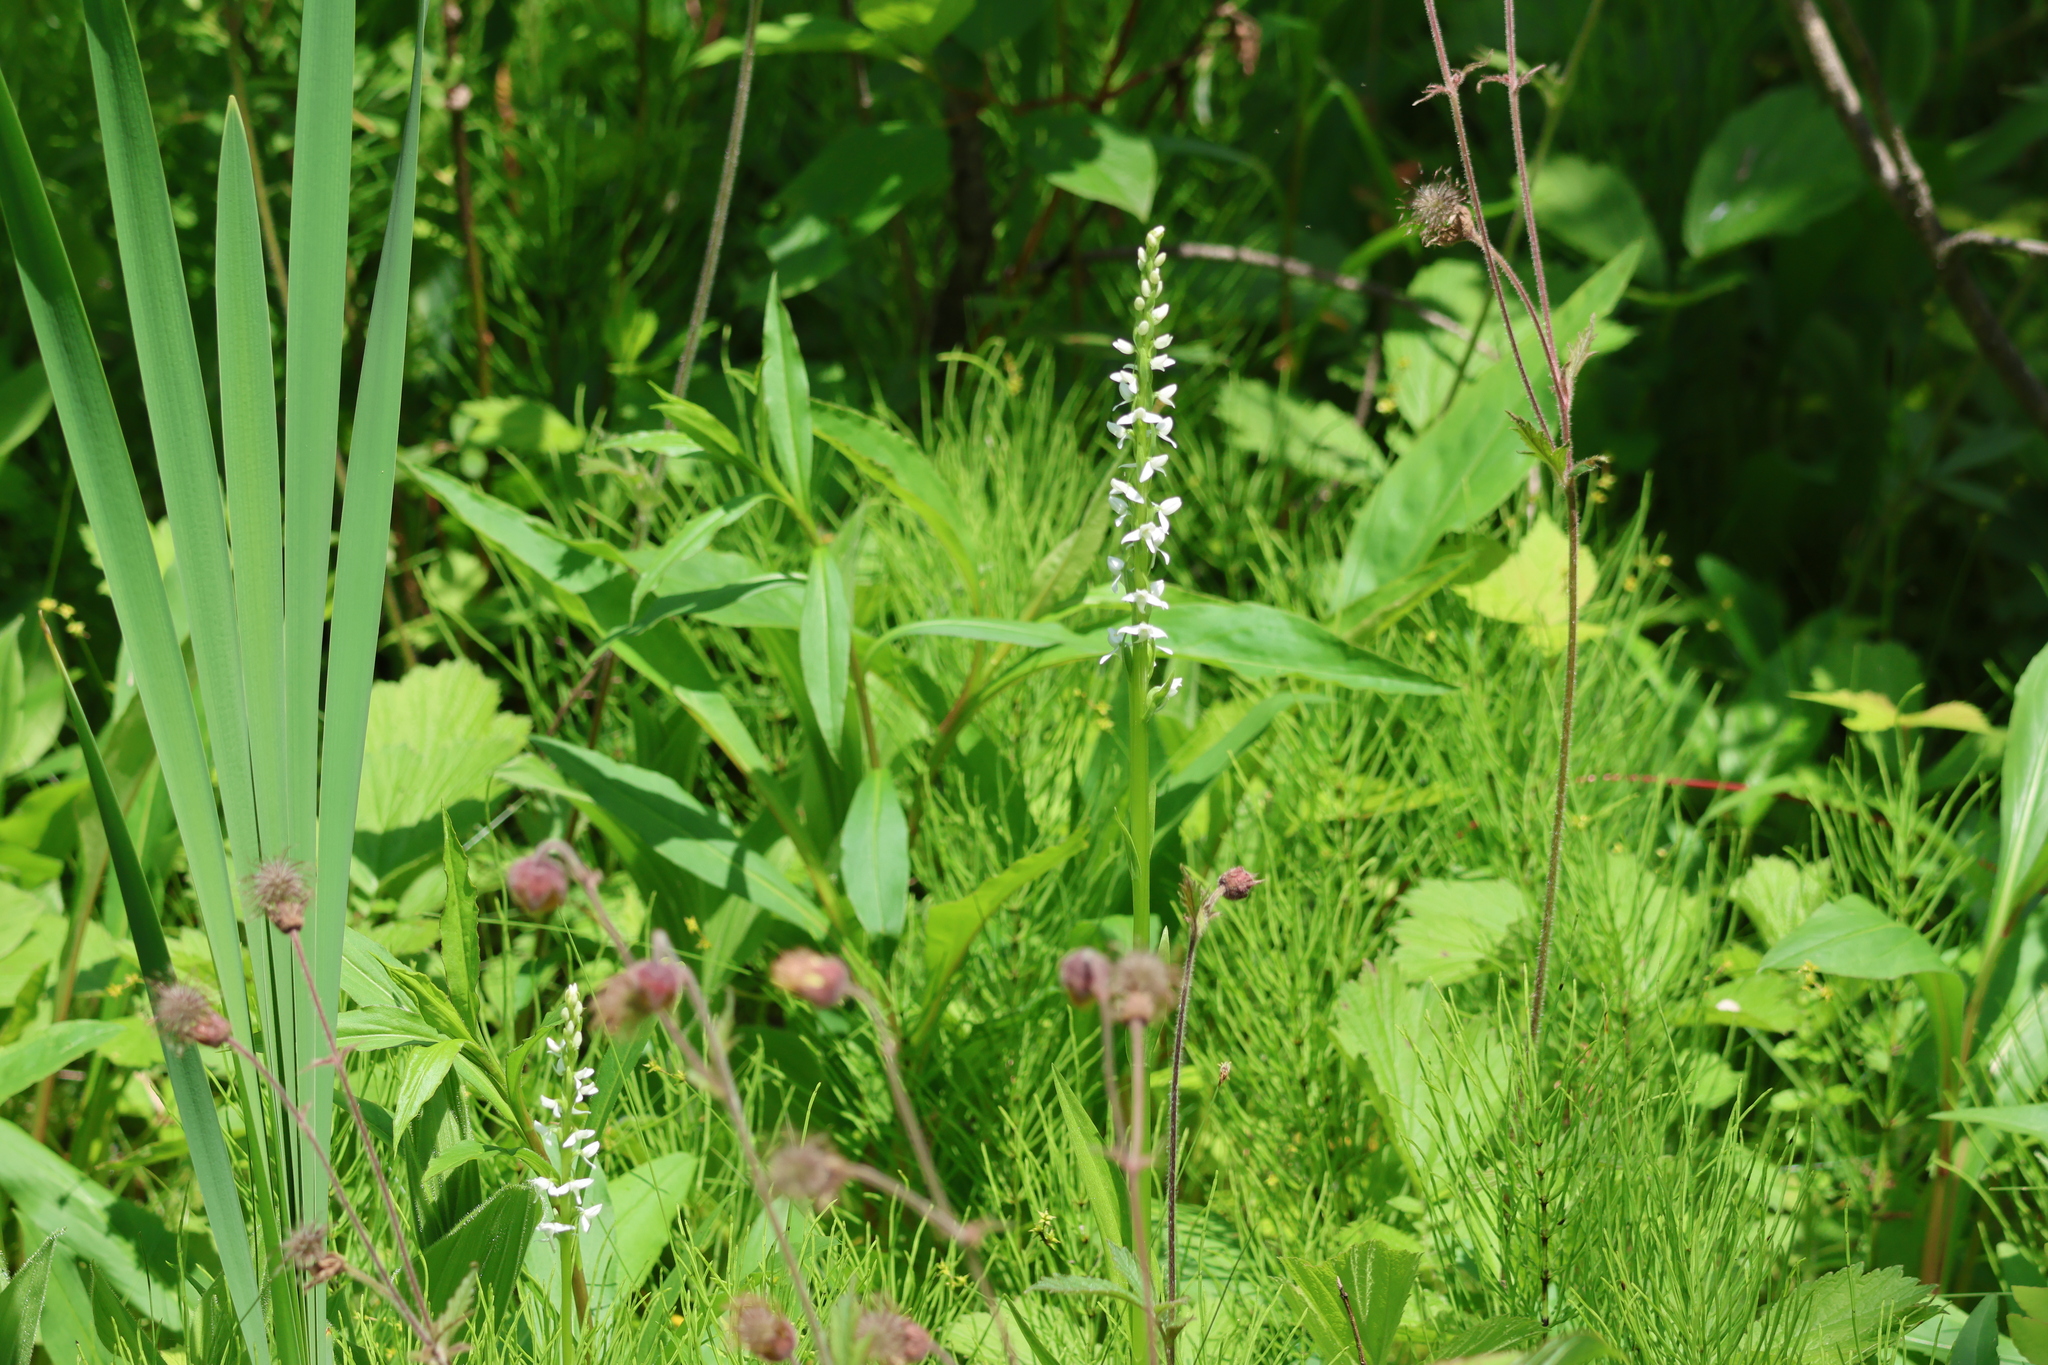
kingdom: Plantae
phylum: Tracheophyta
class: Liliopsida
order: Asparagales
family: Orchidaceae
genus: Platanthera
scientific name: Platanthera dilatata
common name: Bog candles
